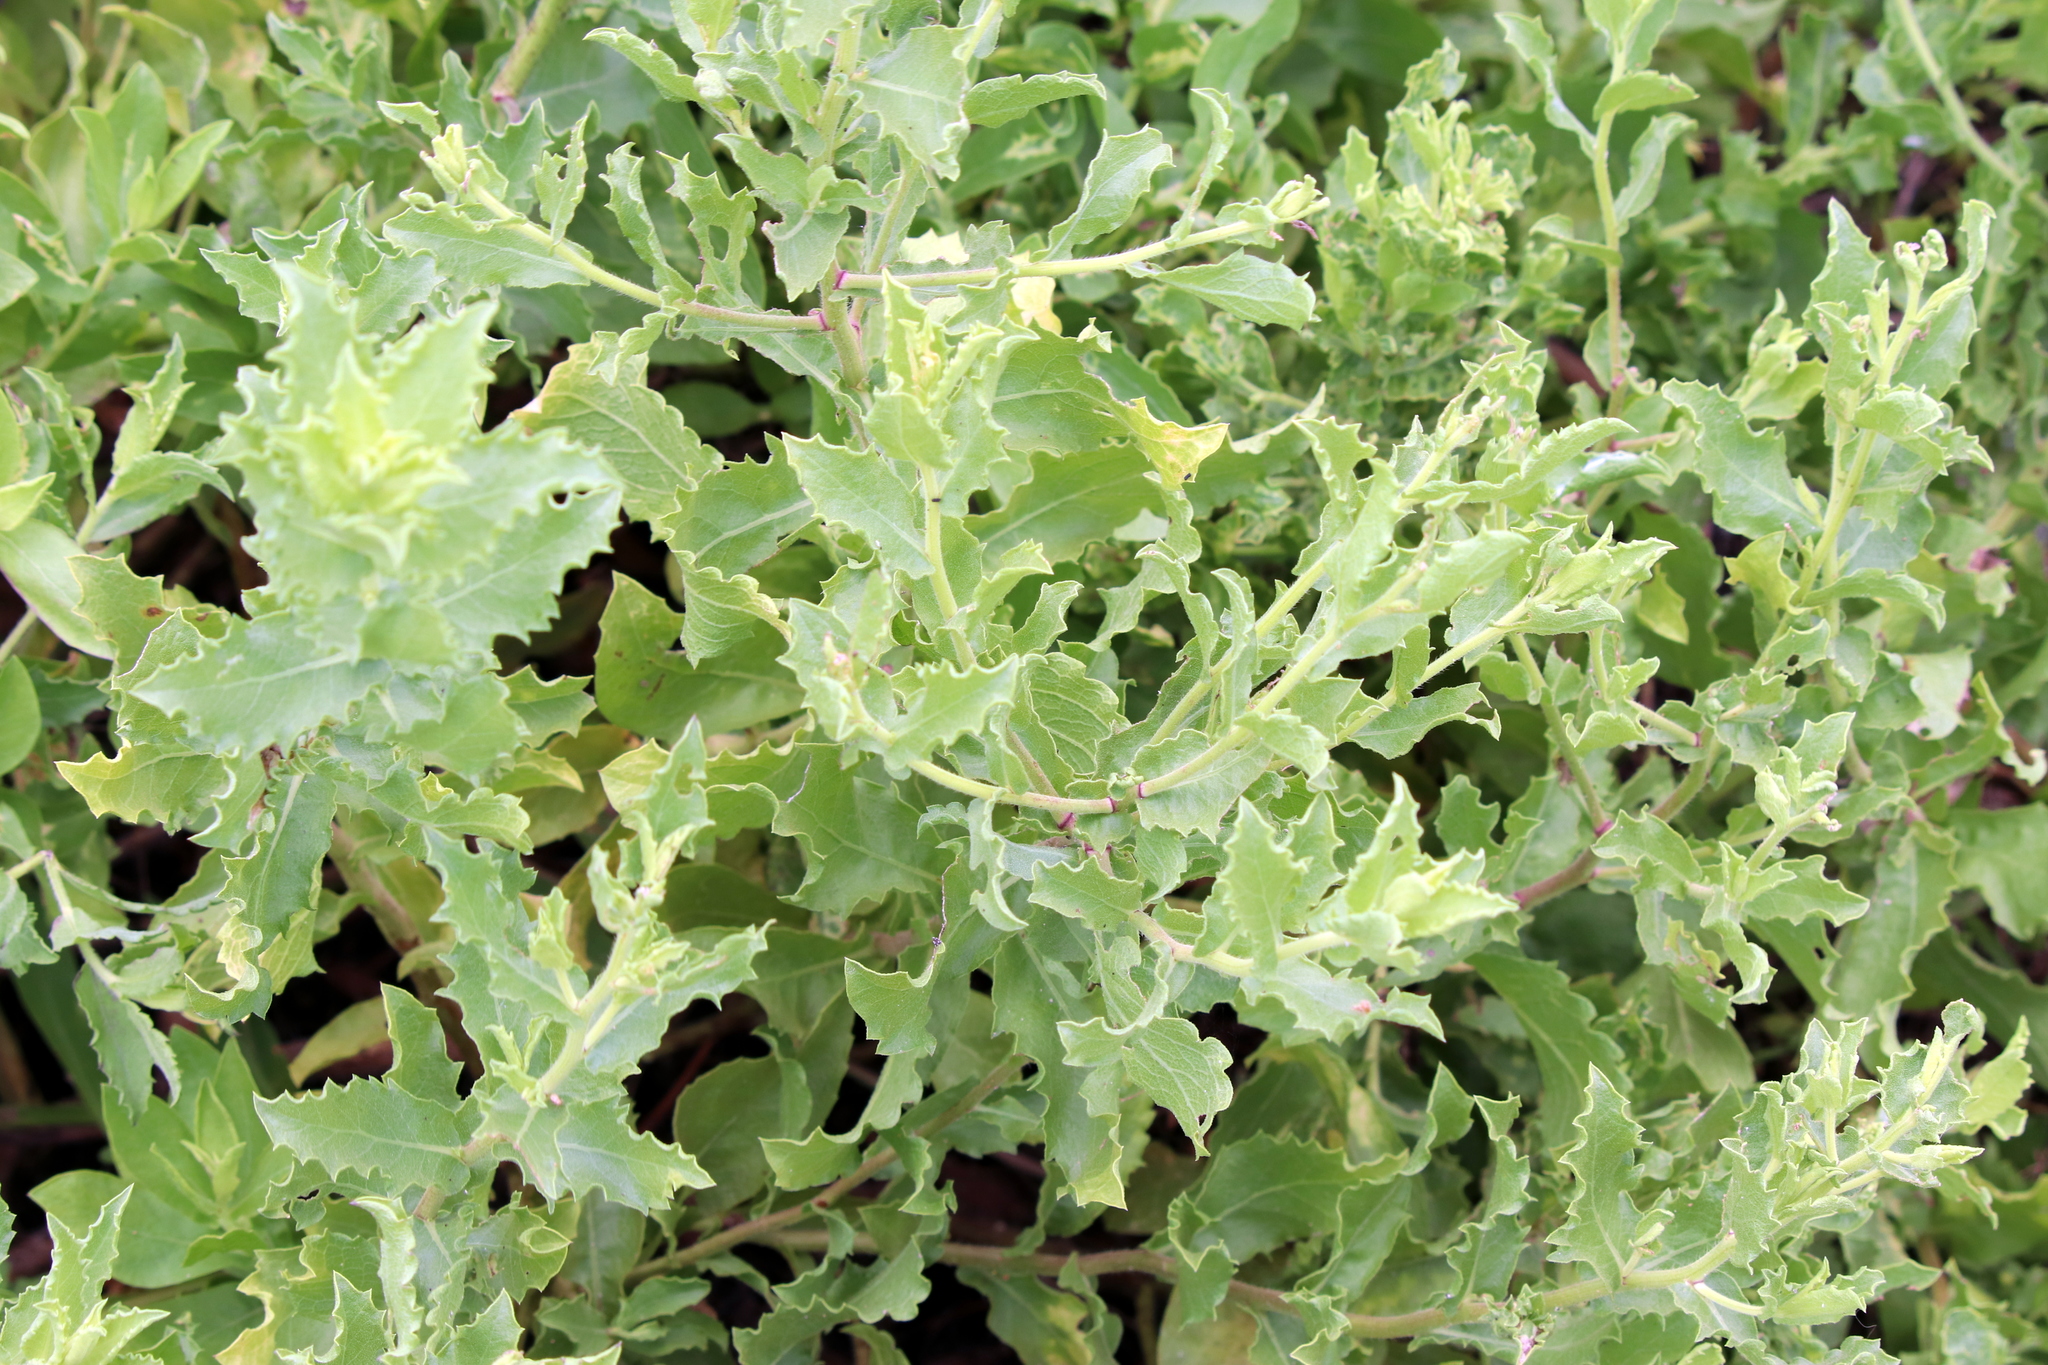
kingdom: Plantae
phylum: Tracheophyta
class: Magnoliopsida
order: Asterales
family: Asteraceae
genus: Heterotheca
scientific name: Heterotheca subaxillaris
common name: Camphorweed
